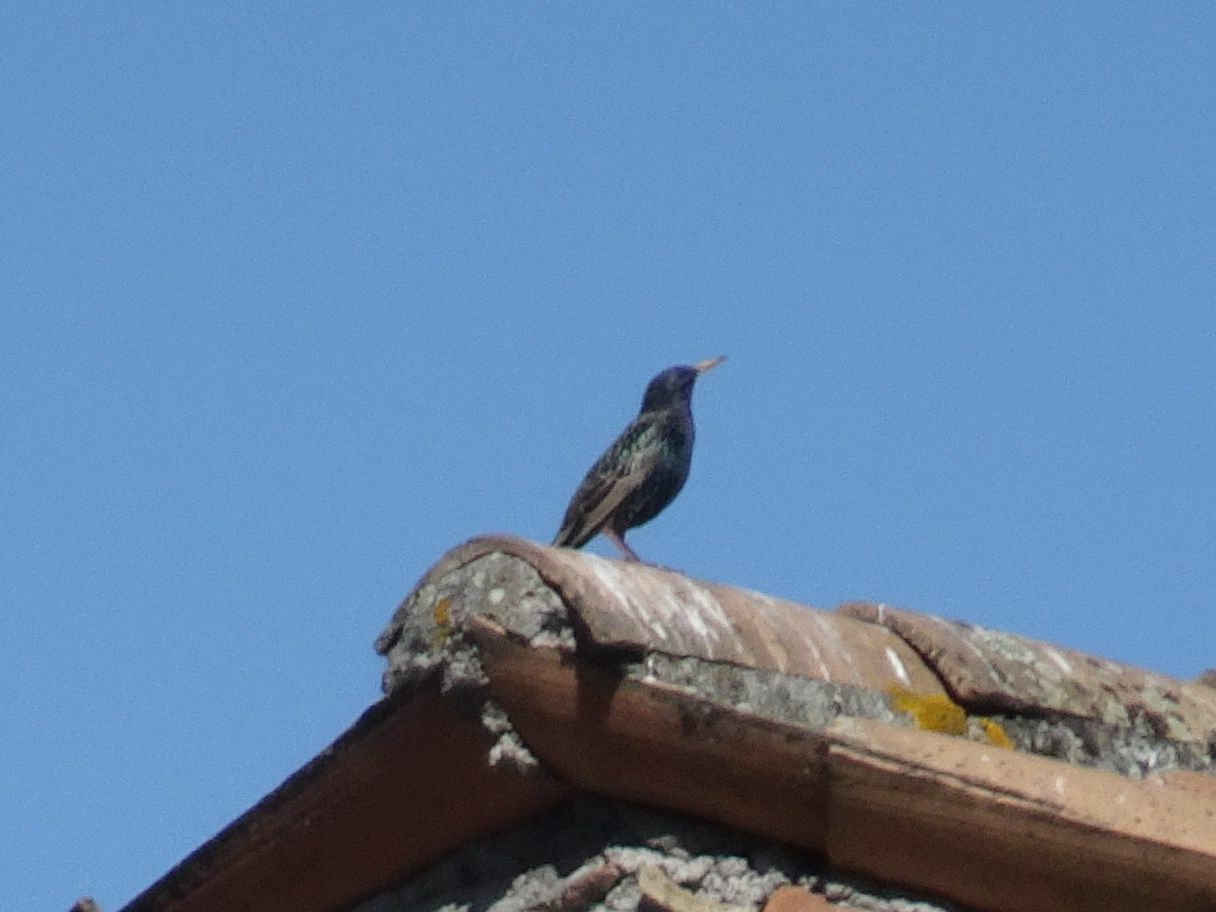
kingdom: Animalia
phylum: Chordata
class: Aves
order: Passeriformes
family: Sturnidae
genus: Sturnus
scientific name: Sturnus vulgaris
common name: Common starling
